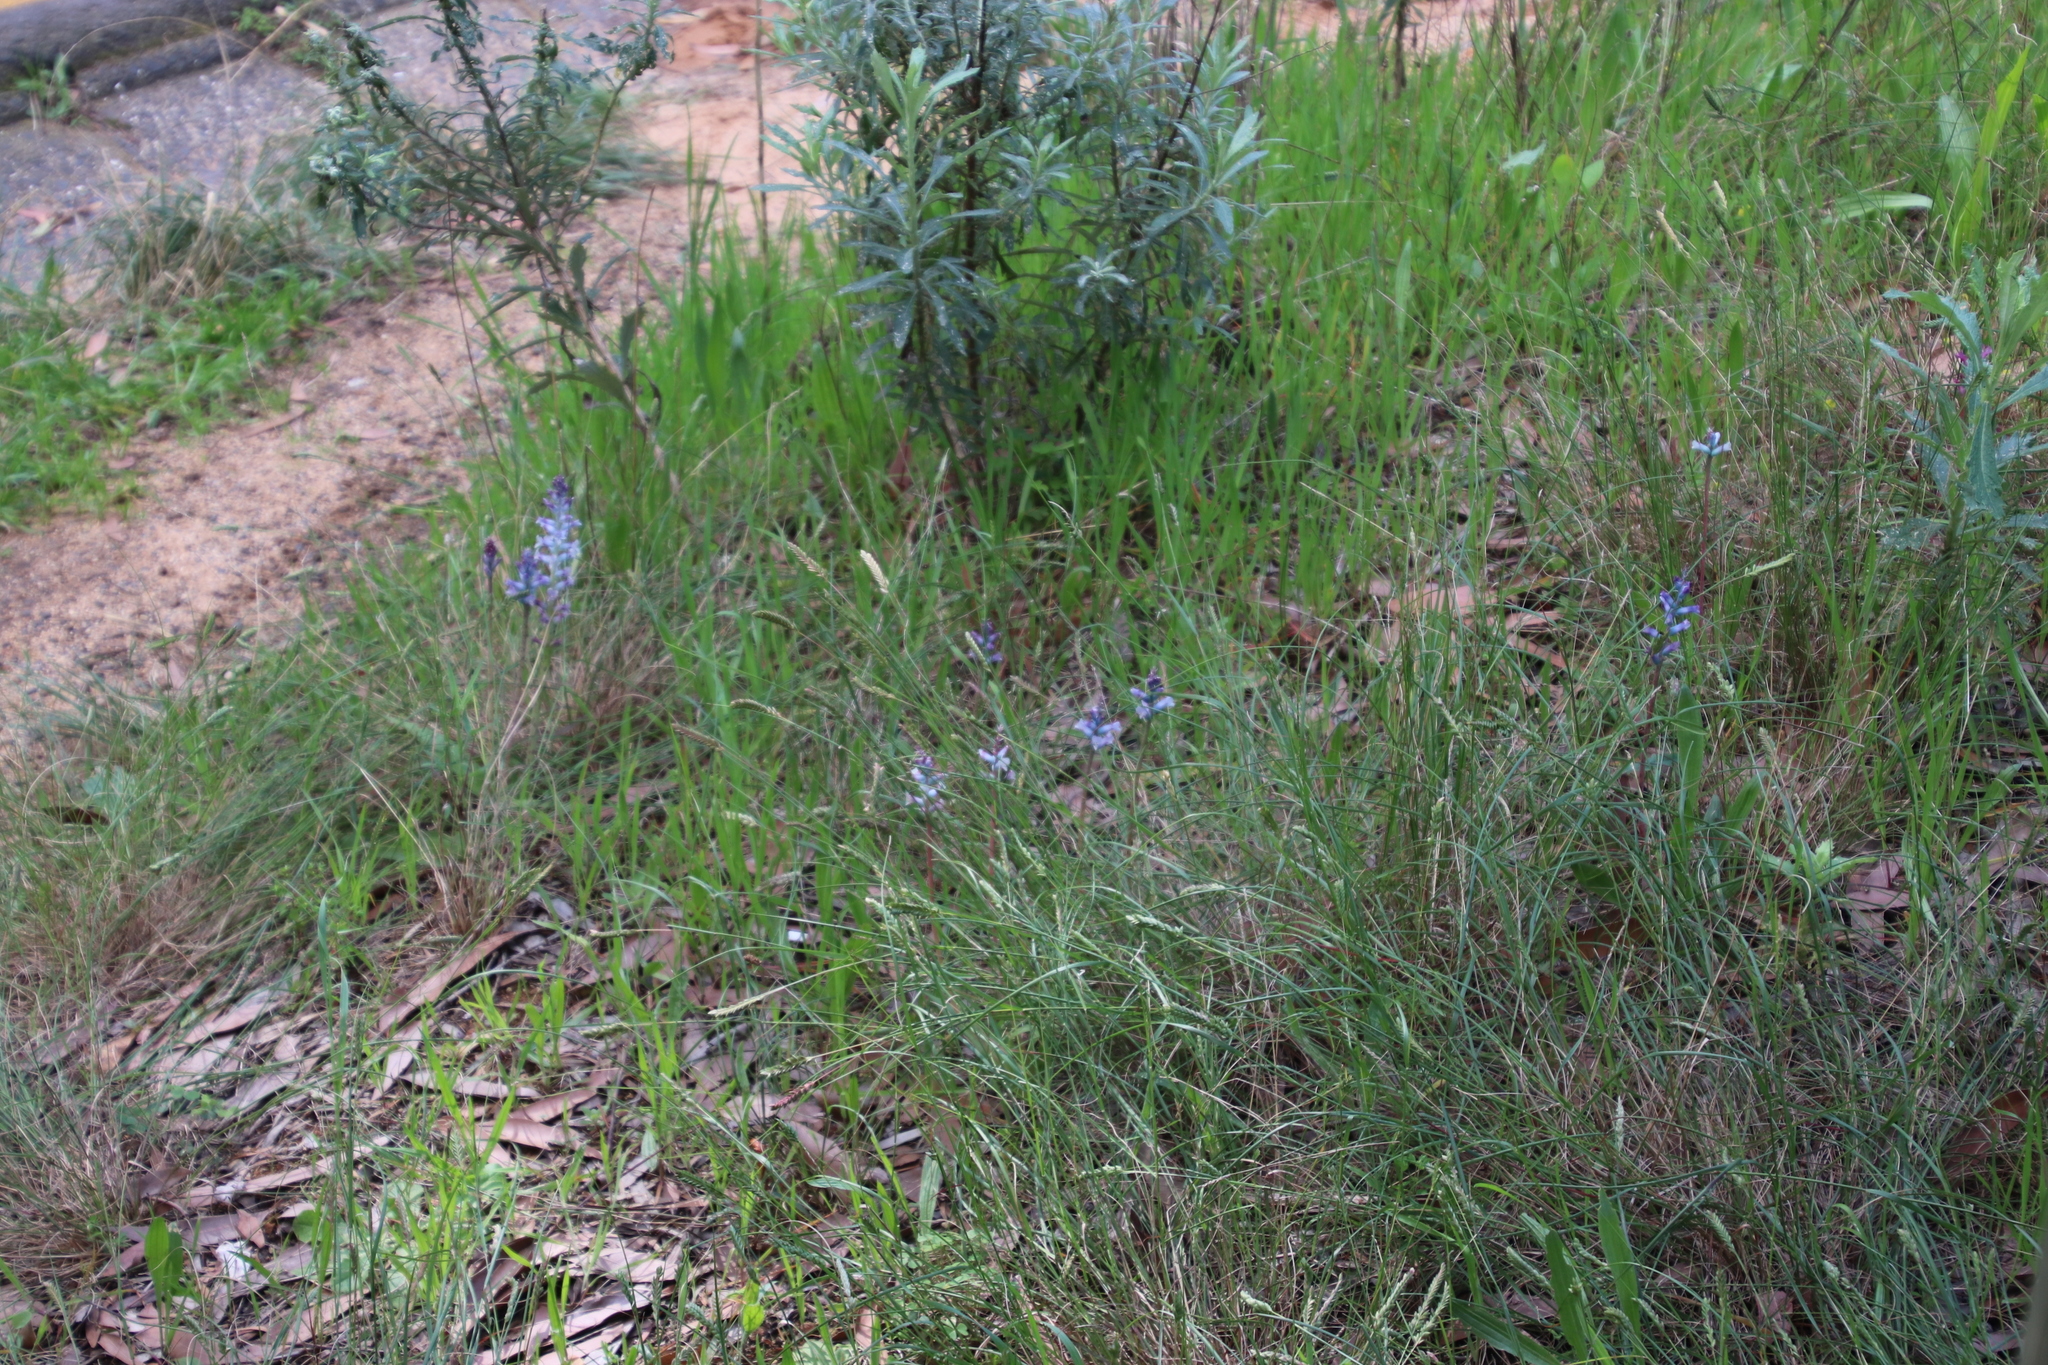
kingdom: Plantae
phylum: Tracheophyta
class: Liliopsida
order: Asparagales
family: Asparagaceae
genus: Lachenalia
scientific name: Lachenalia glaucina
